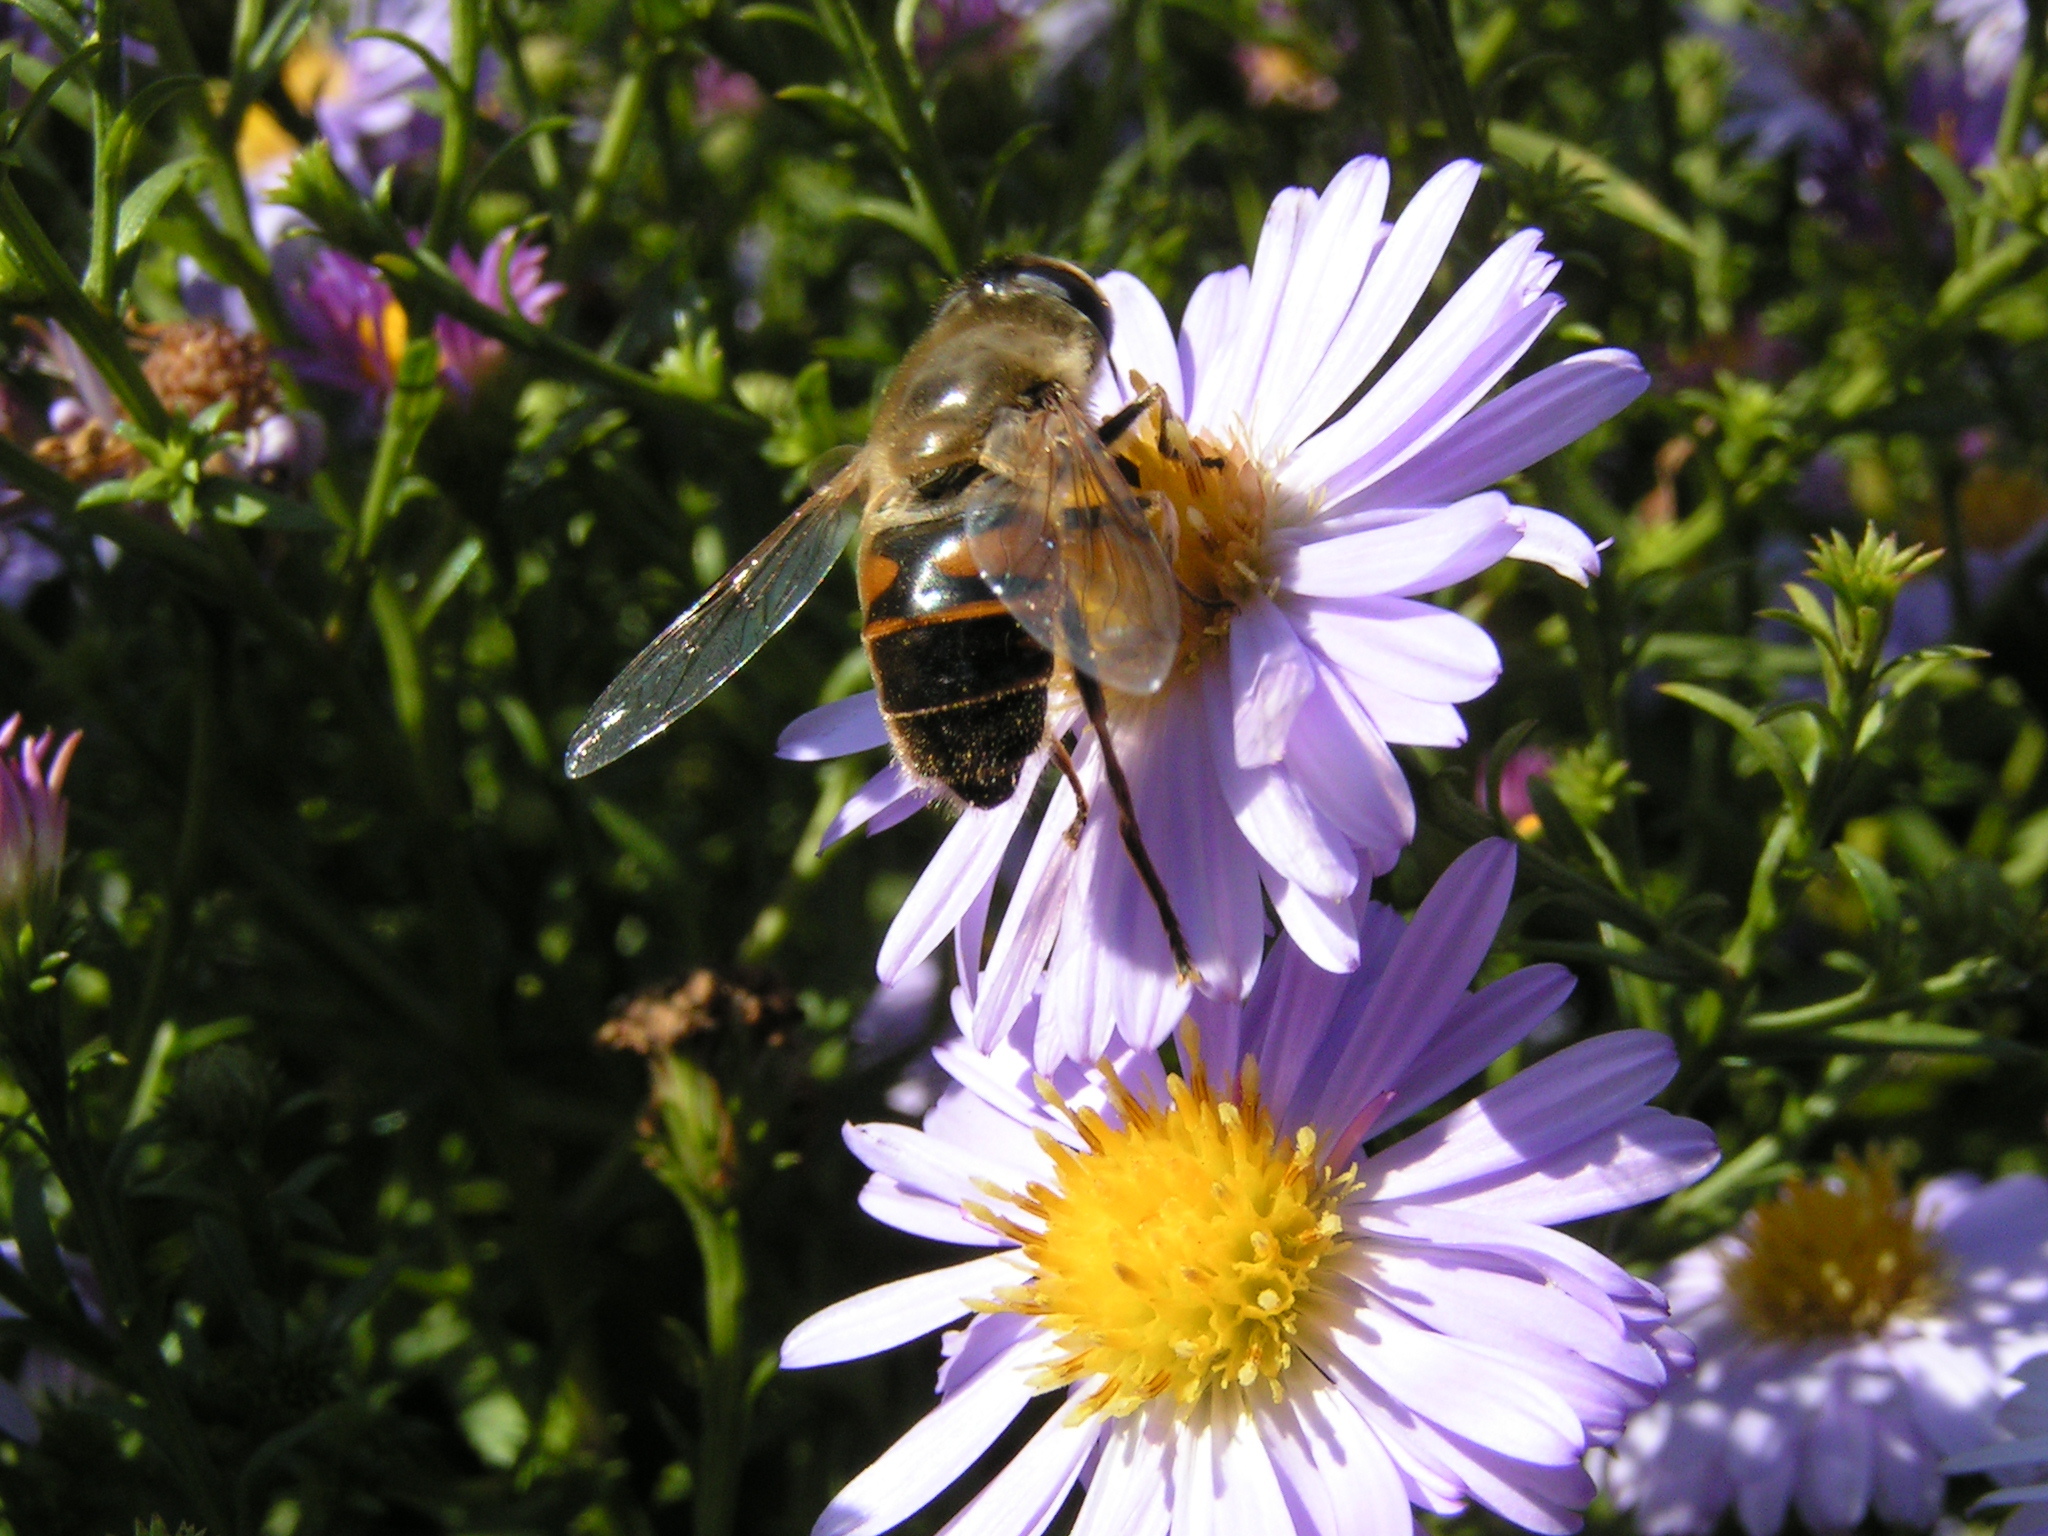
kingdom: Animalia
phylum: Arthropoda
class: Insecta
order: Diptera
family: Syrphidae
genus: Eristalis
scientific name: Eristalis tenax
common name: Drone fly
